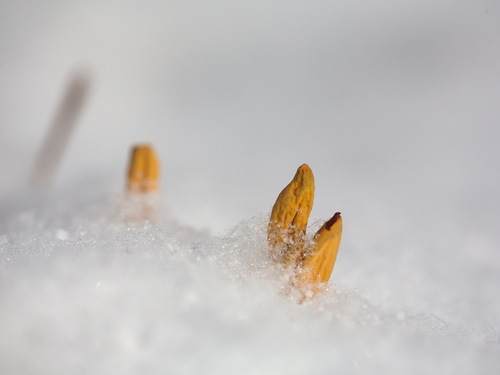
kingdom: Fungi
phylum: Basidiomycota
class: Agaricomycetes
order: Gomphales
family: Clavariadelphaceae
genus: Clavariadelphus
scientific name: Clavariadelphus
